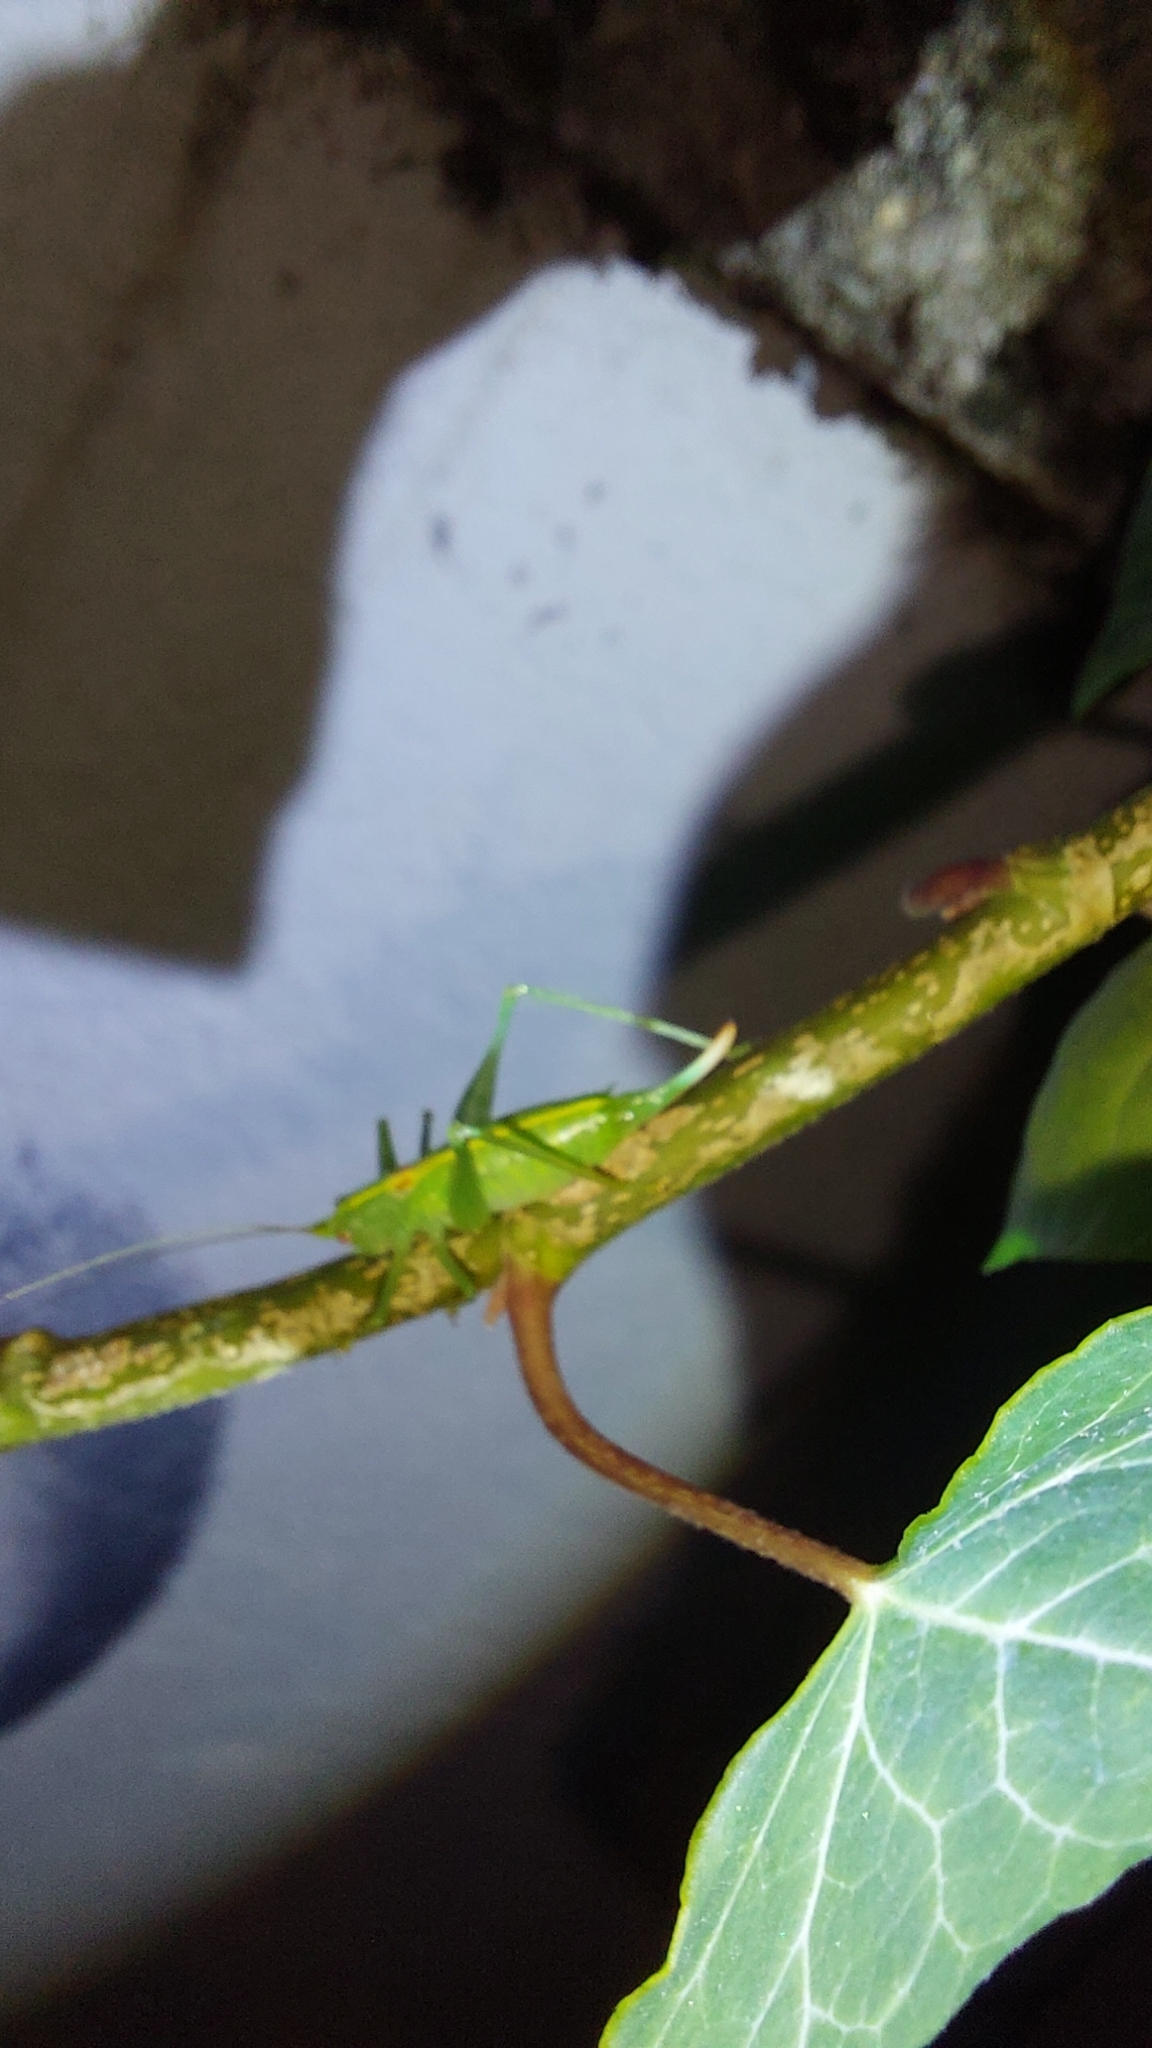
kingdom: Animalia
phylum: Arthropoda
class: Insecta
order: Orthoptera
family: Tettigoniidae
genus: Meconema
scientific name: Meconema meridionale
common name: Southern oak bush-cricket
